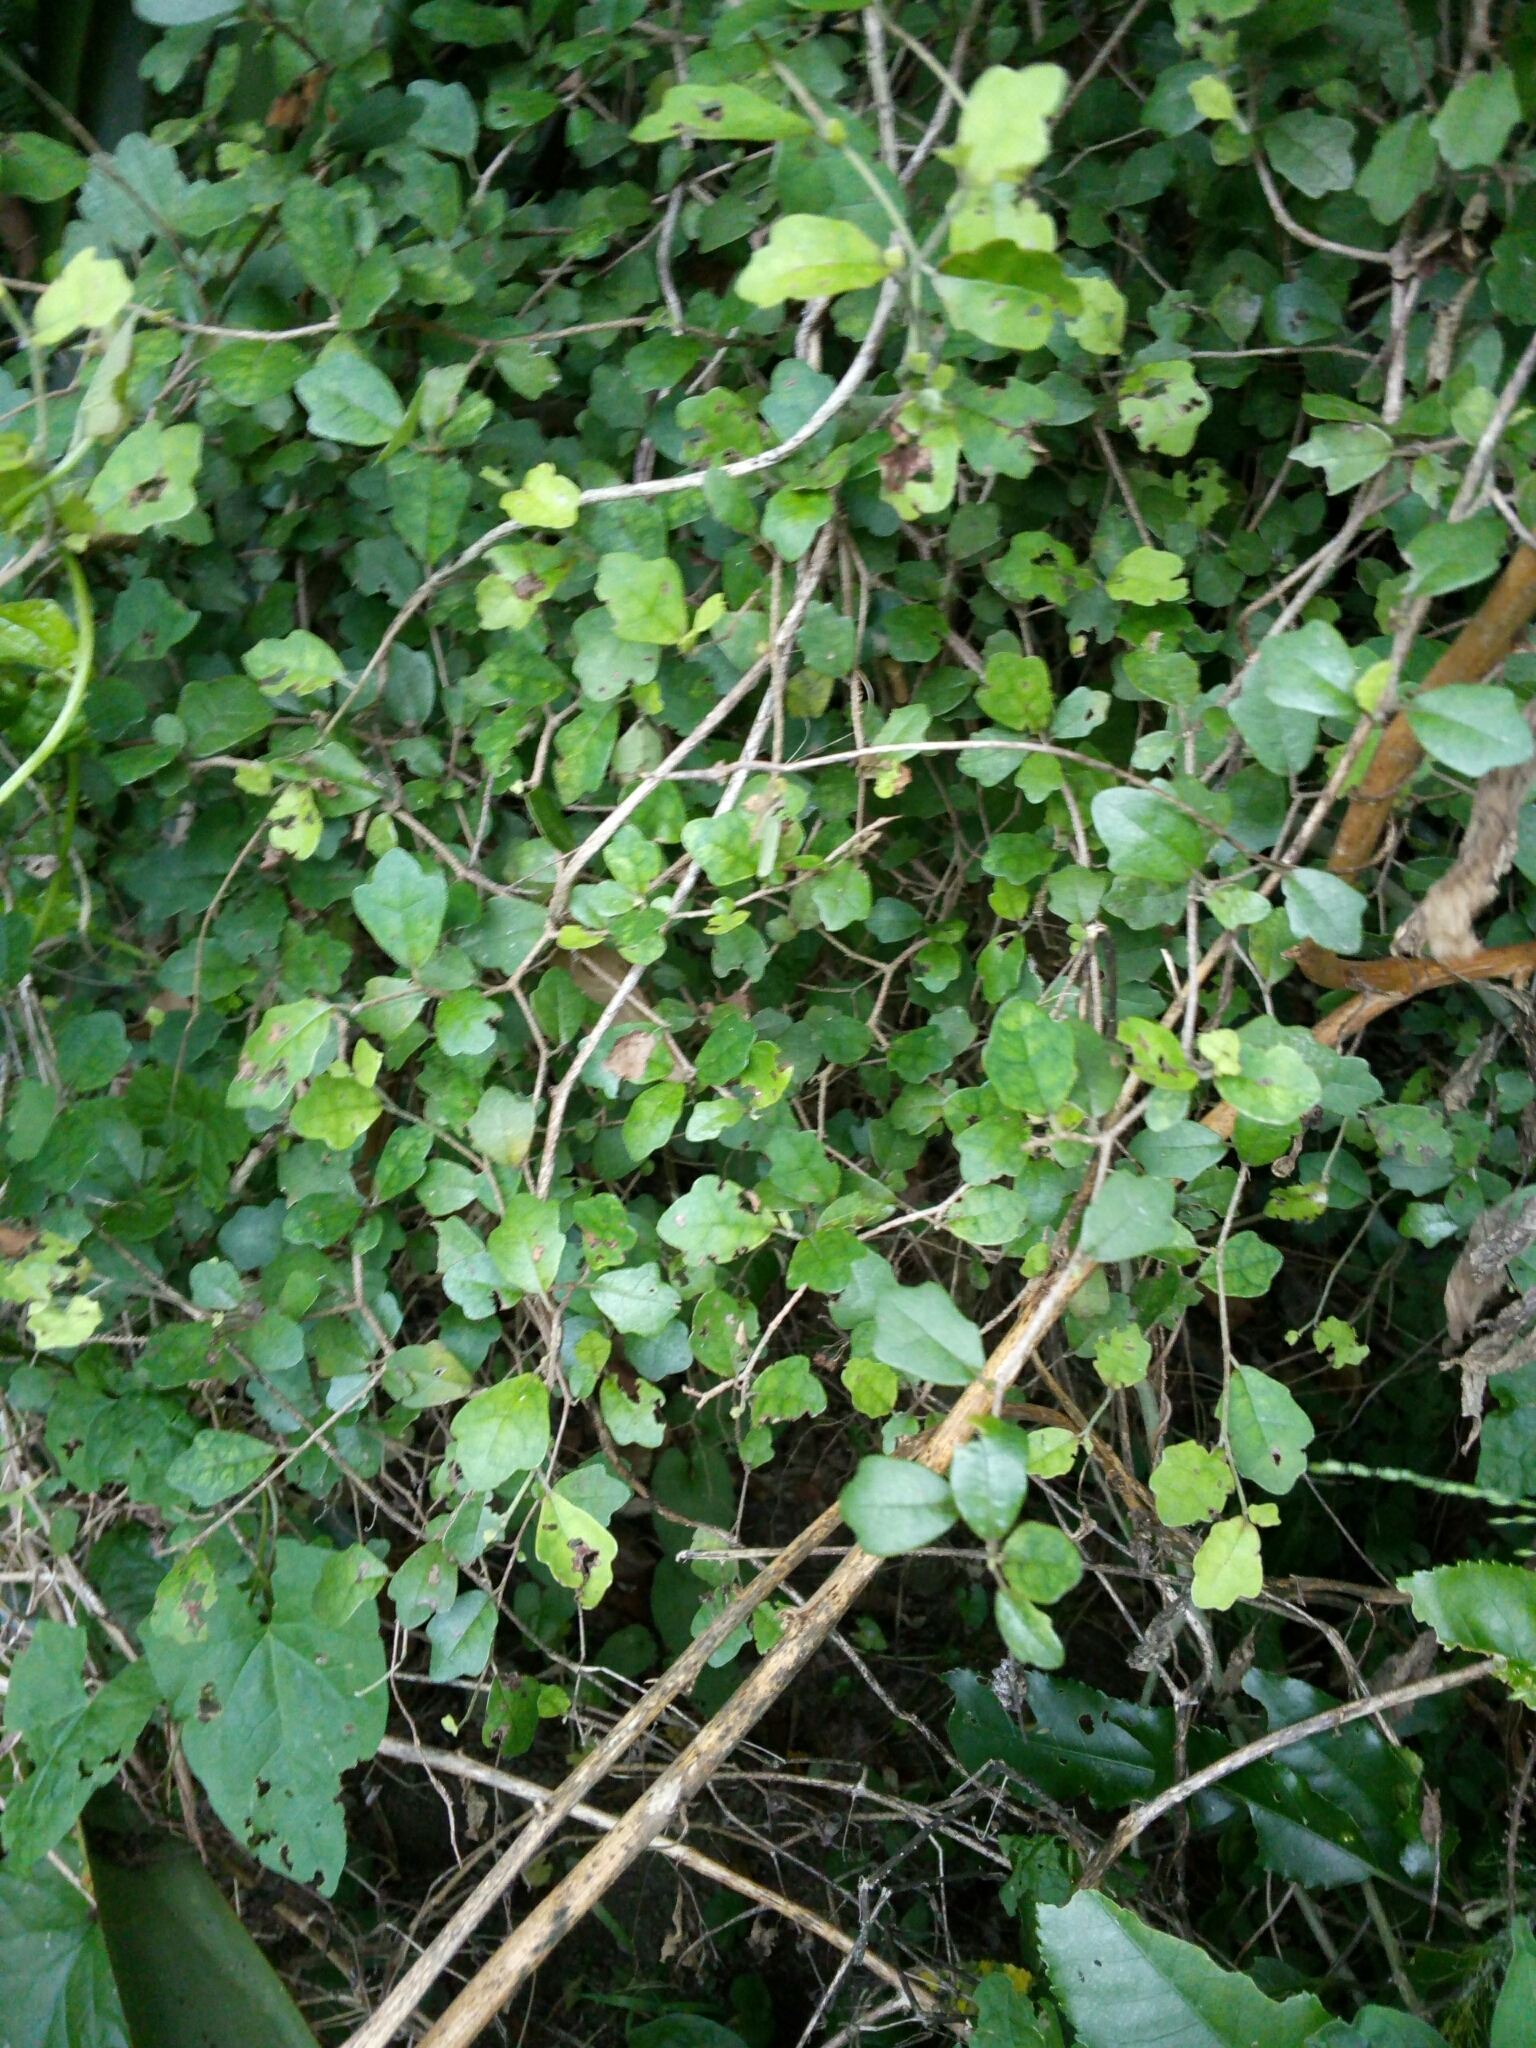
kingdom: Plantae
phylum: Tracheophyta
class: Magnoliopsida
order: Apiales
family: Pennantiaceae
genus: Pennantia
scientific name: Pennantia corymbosa
